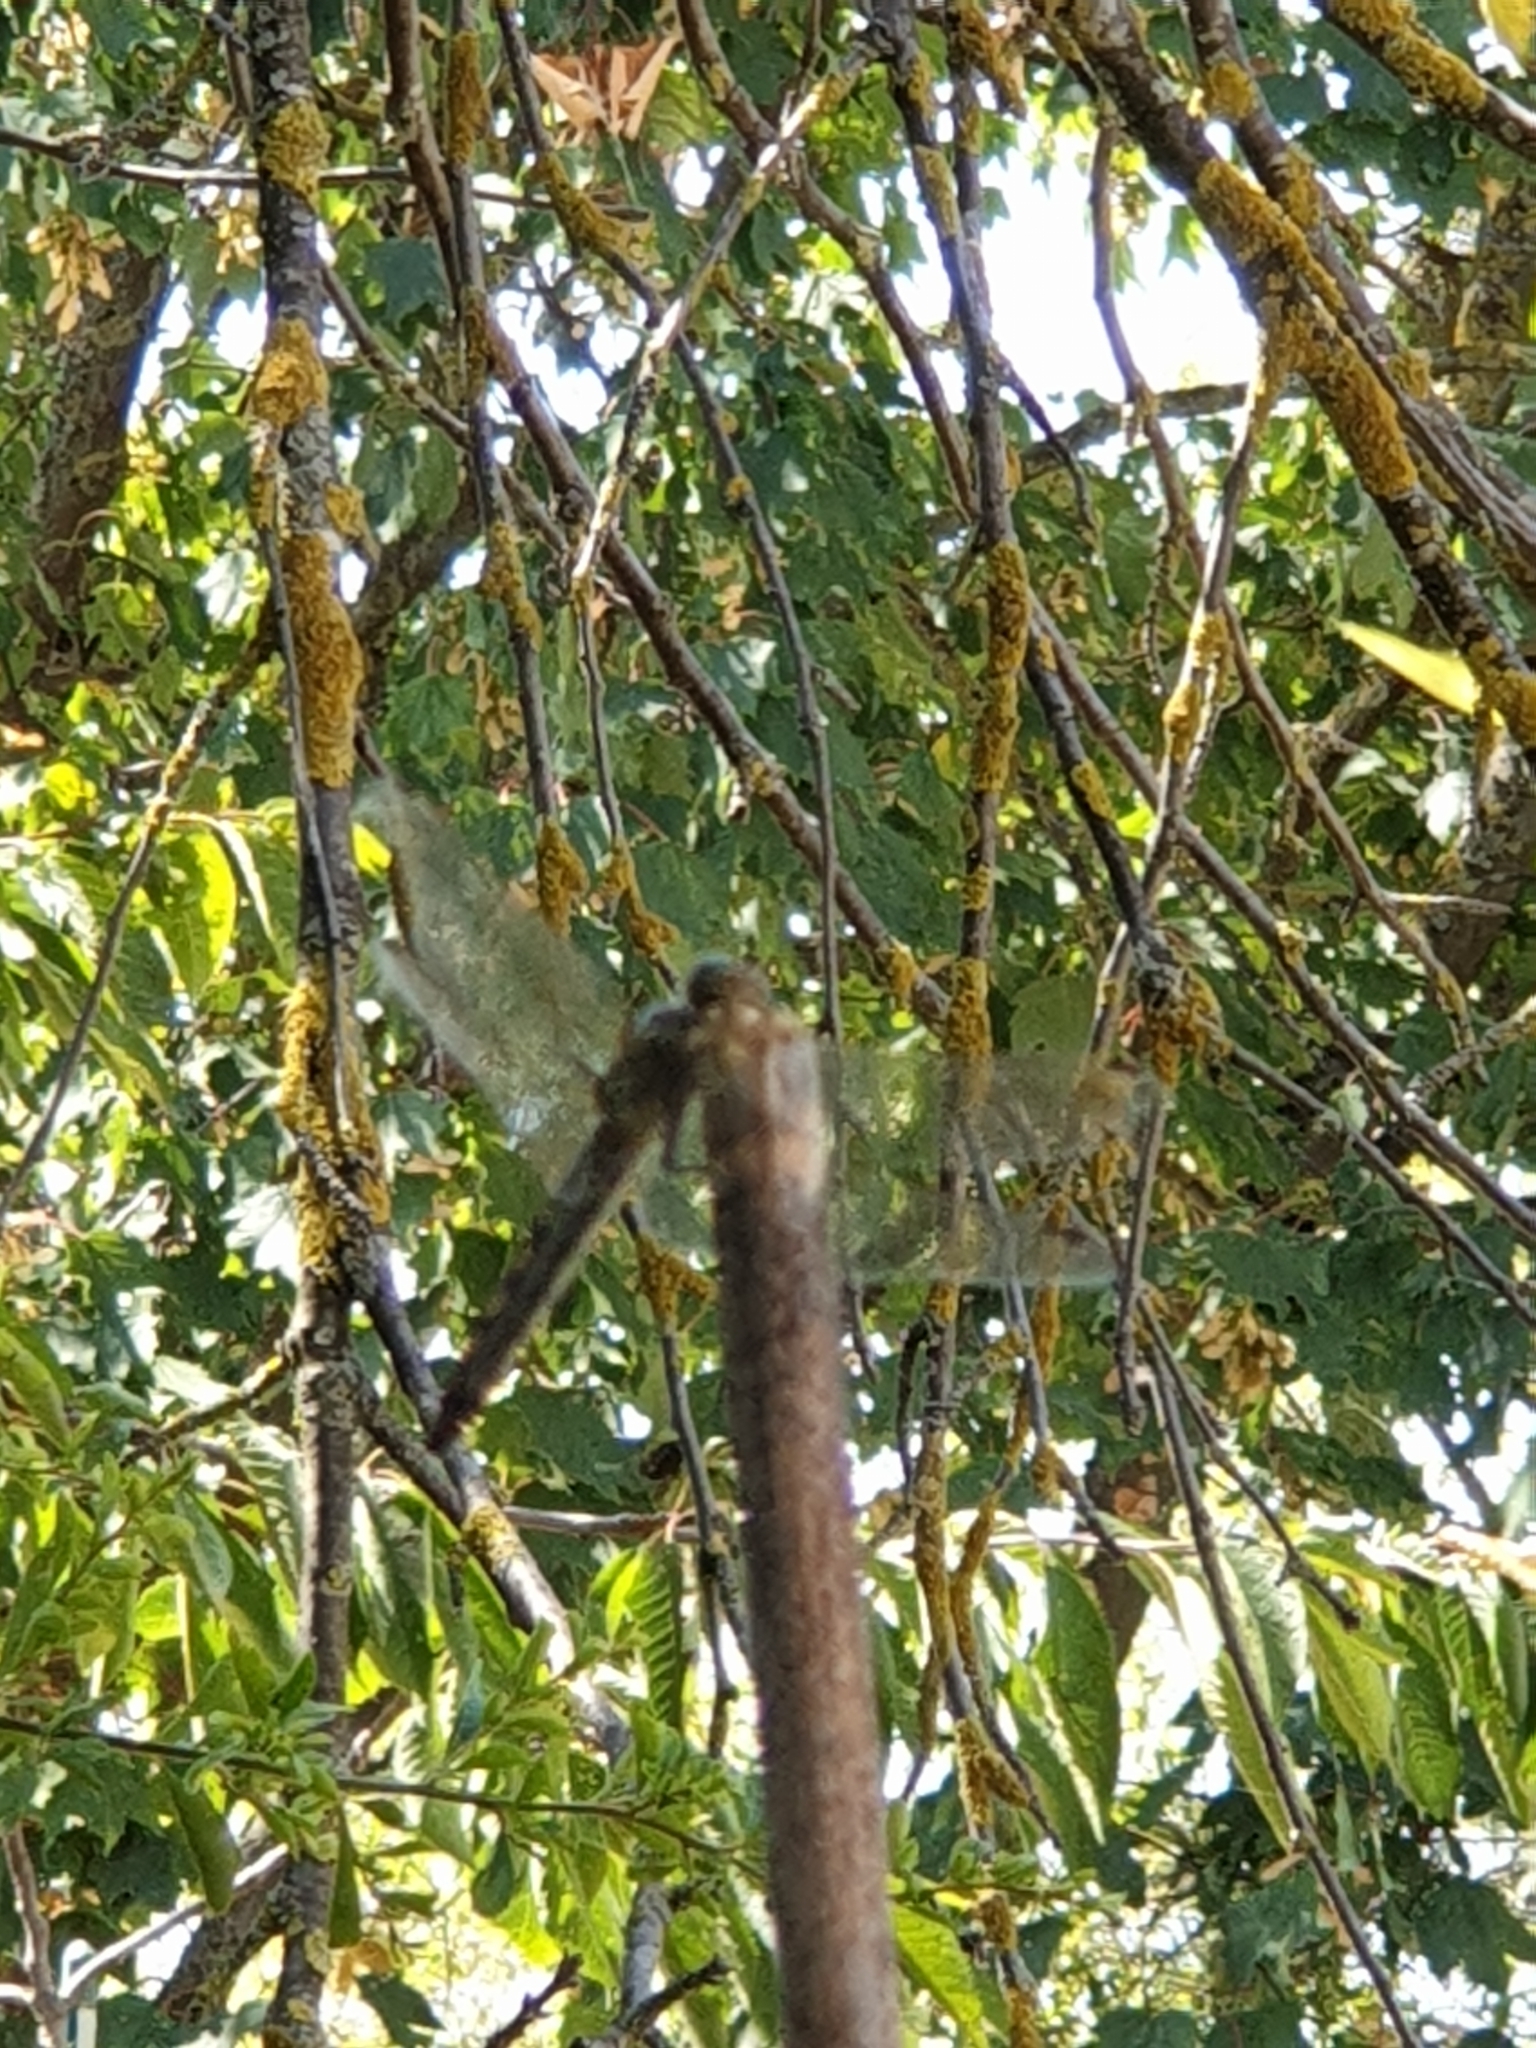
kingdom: Animalia
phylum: Arthropoda
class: Insecta
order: Odonata
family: Libellulidae
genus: Orthetrum
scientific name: Orthetrum cancellatum
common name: Black-tailed skimmer
